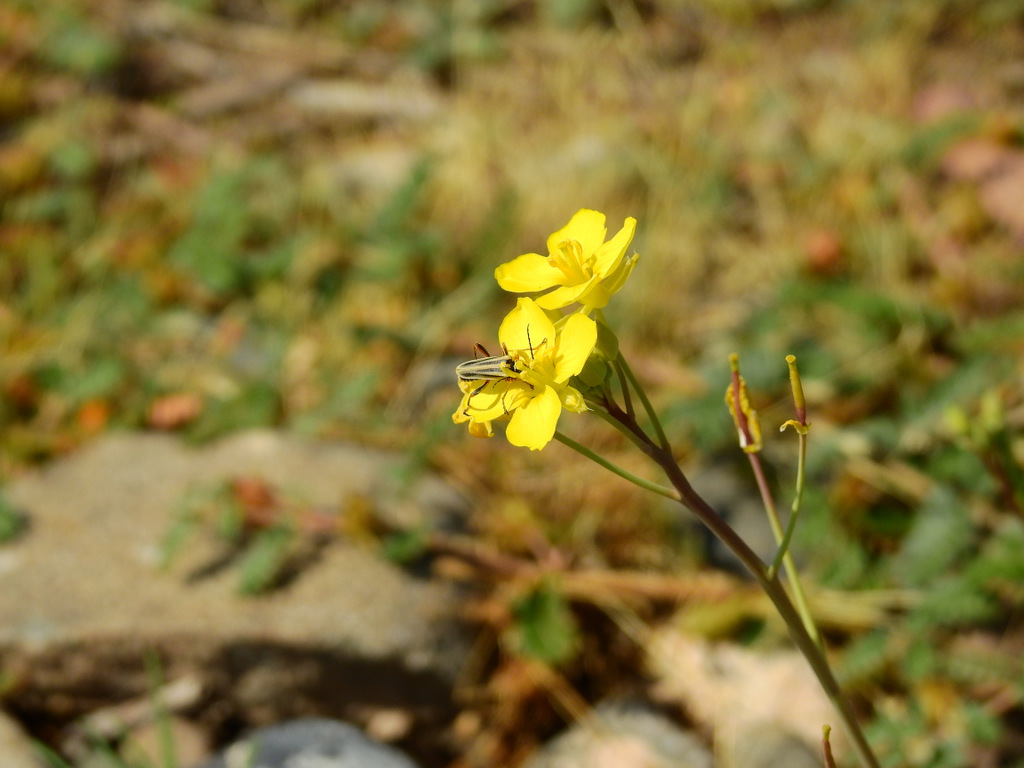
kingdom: Animalia
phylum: Arthropoda
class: Insecta
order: Coleoptera
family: Cantharidae
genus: Chauliognathus
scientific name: Chauliognathus
